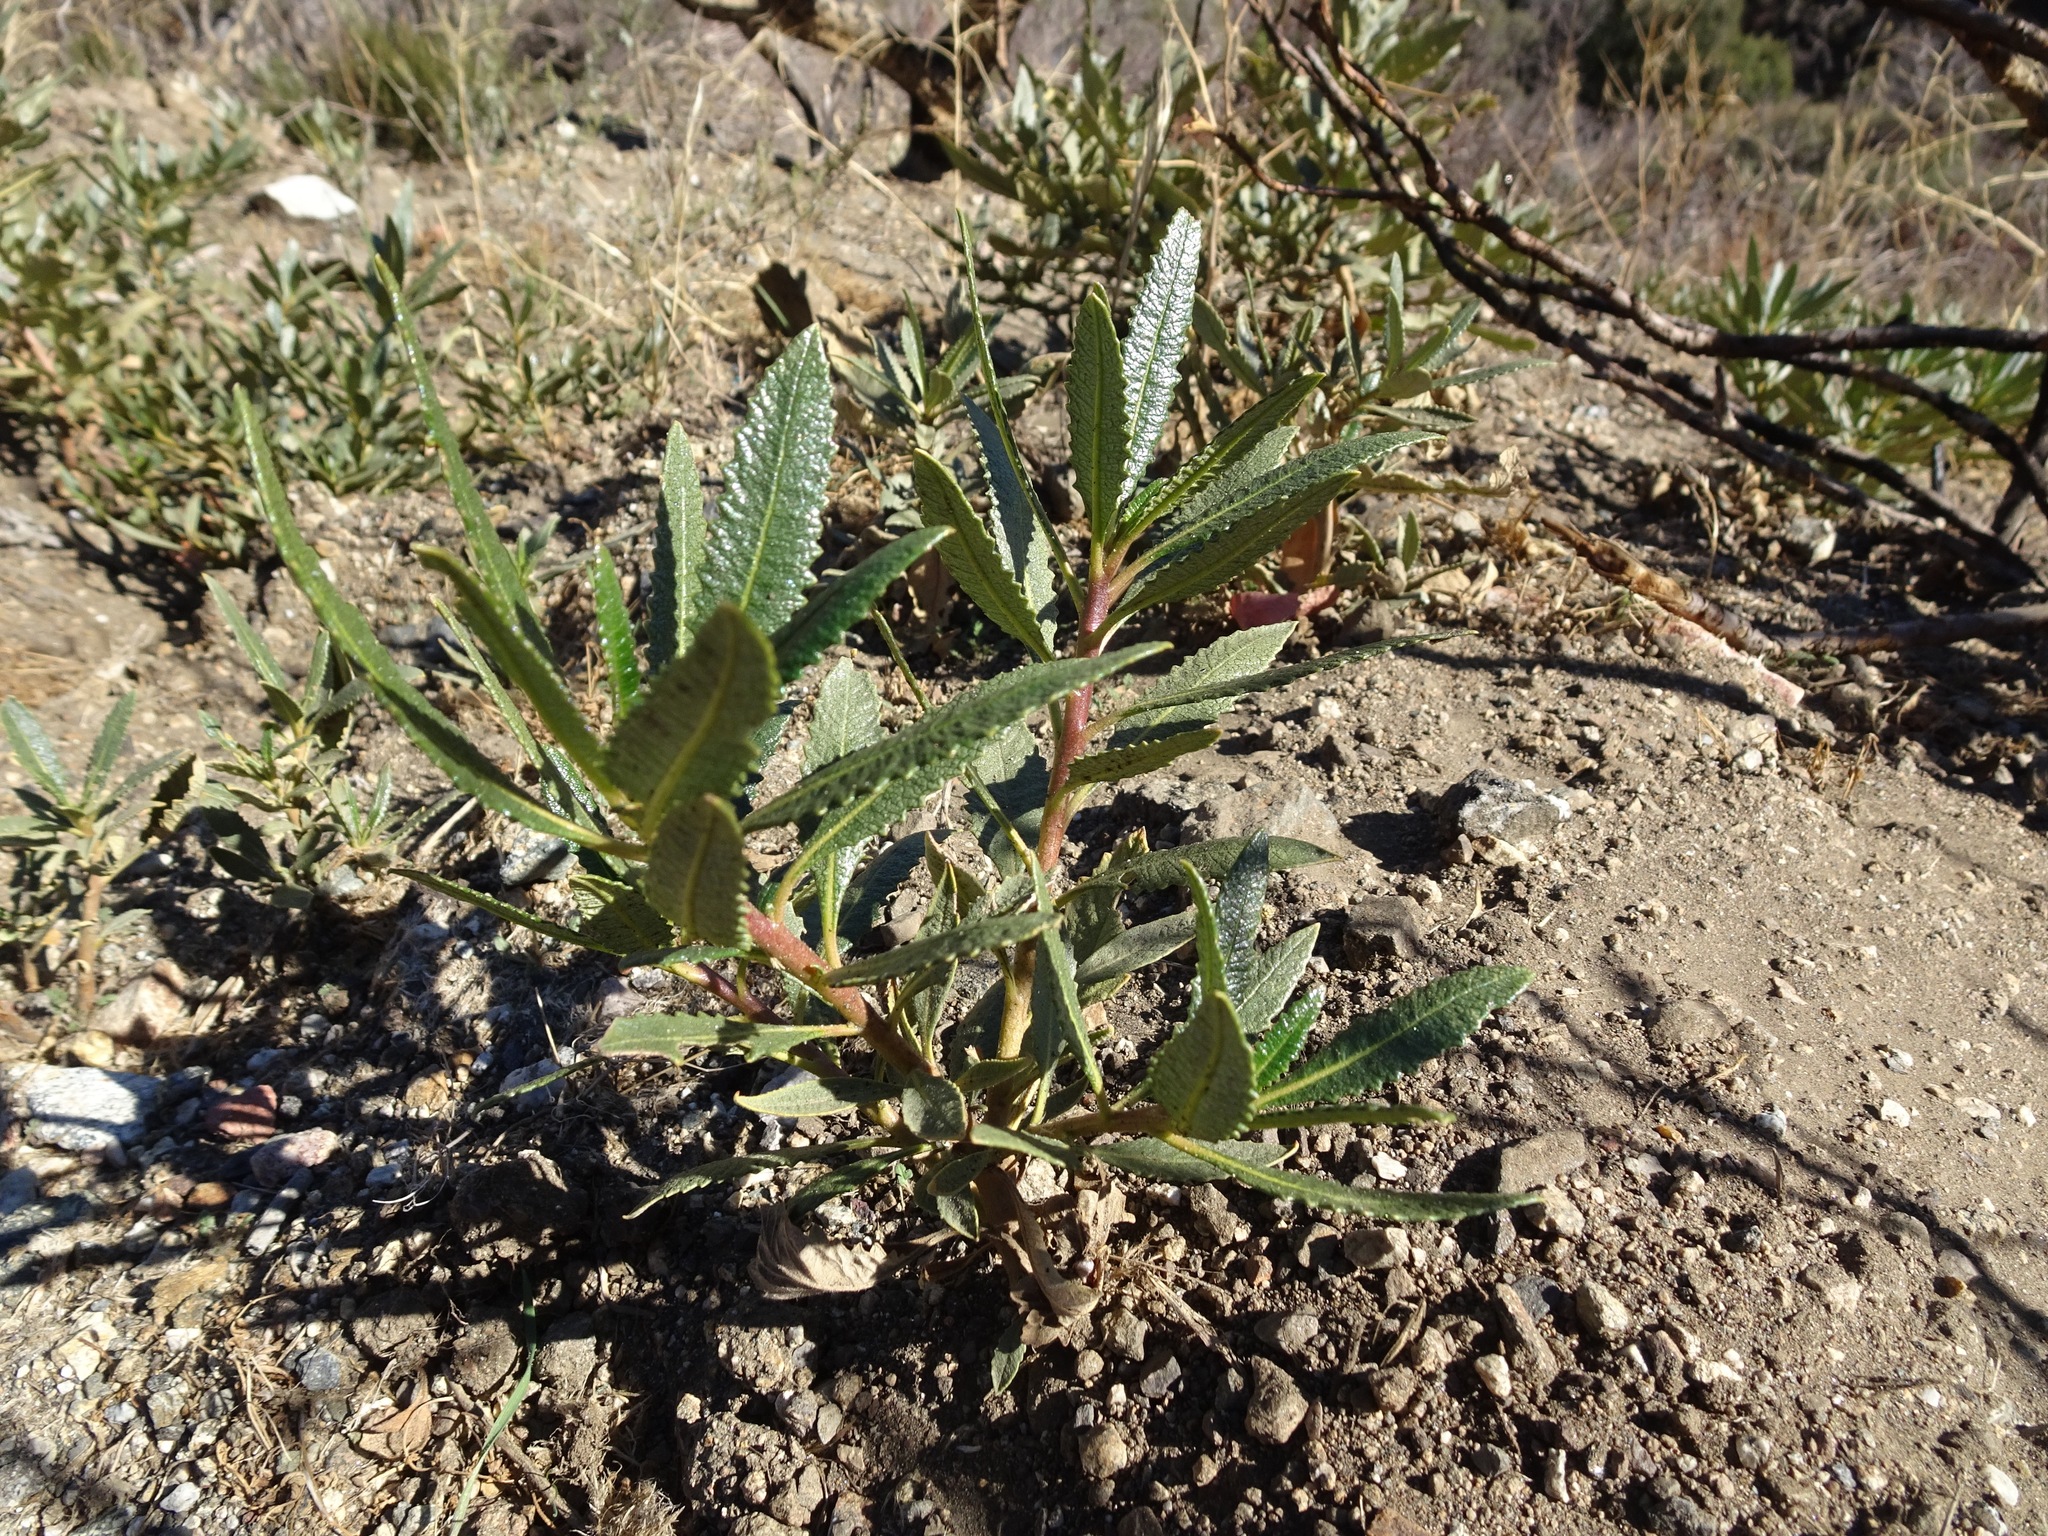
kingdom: Plantae
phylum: Tracheophyta
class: Magnoliopsida
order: Boraginales
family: Namaceae
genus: Eriodictyon
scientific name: Eriodictyon trichocalyx
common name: Hairy yerba-santa
